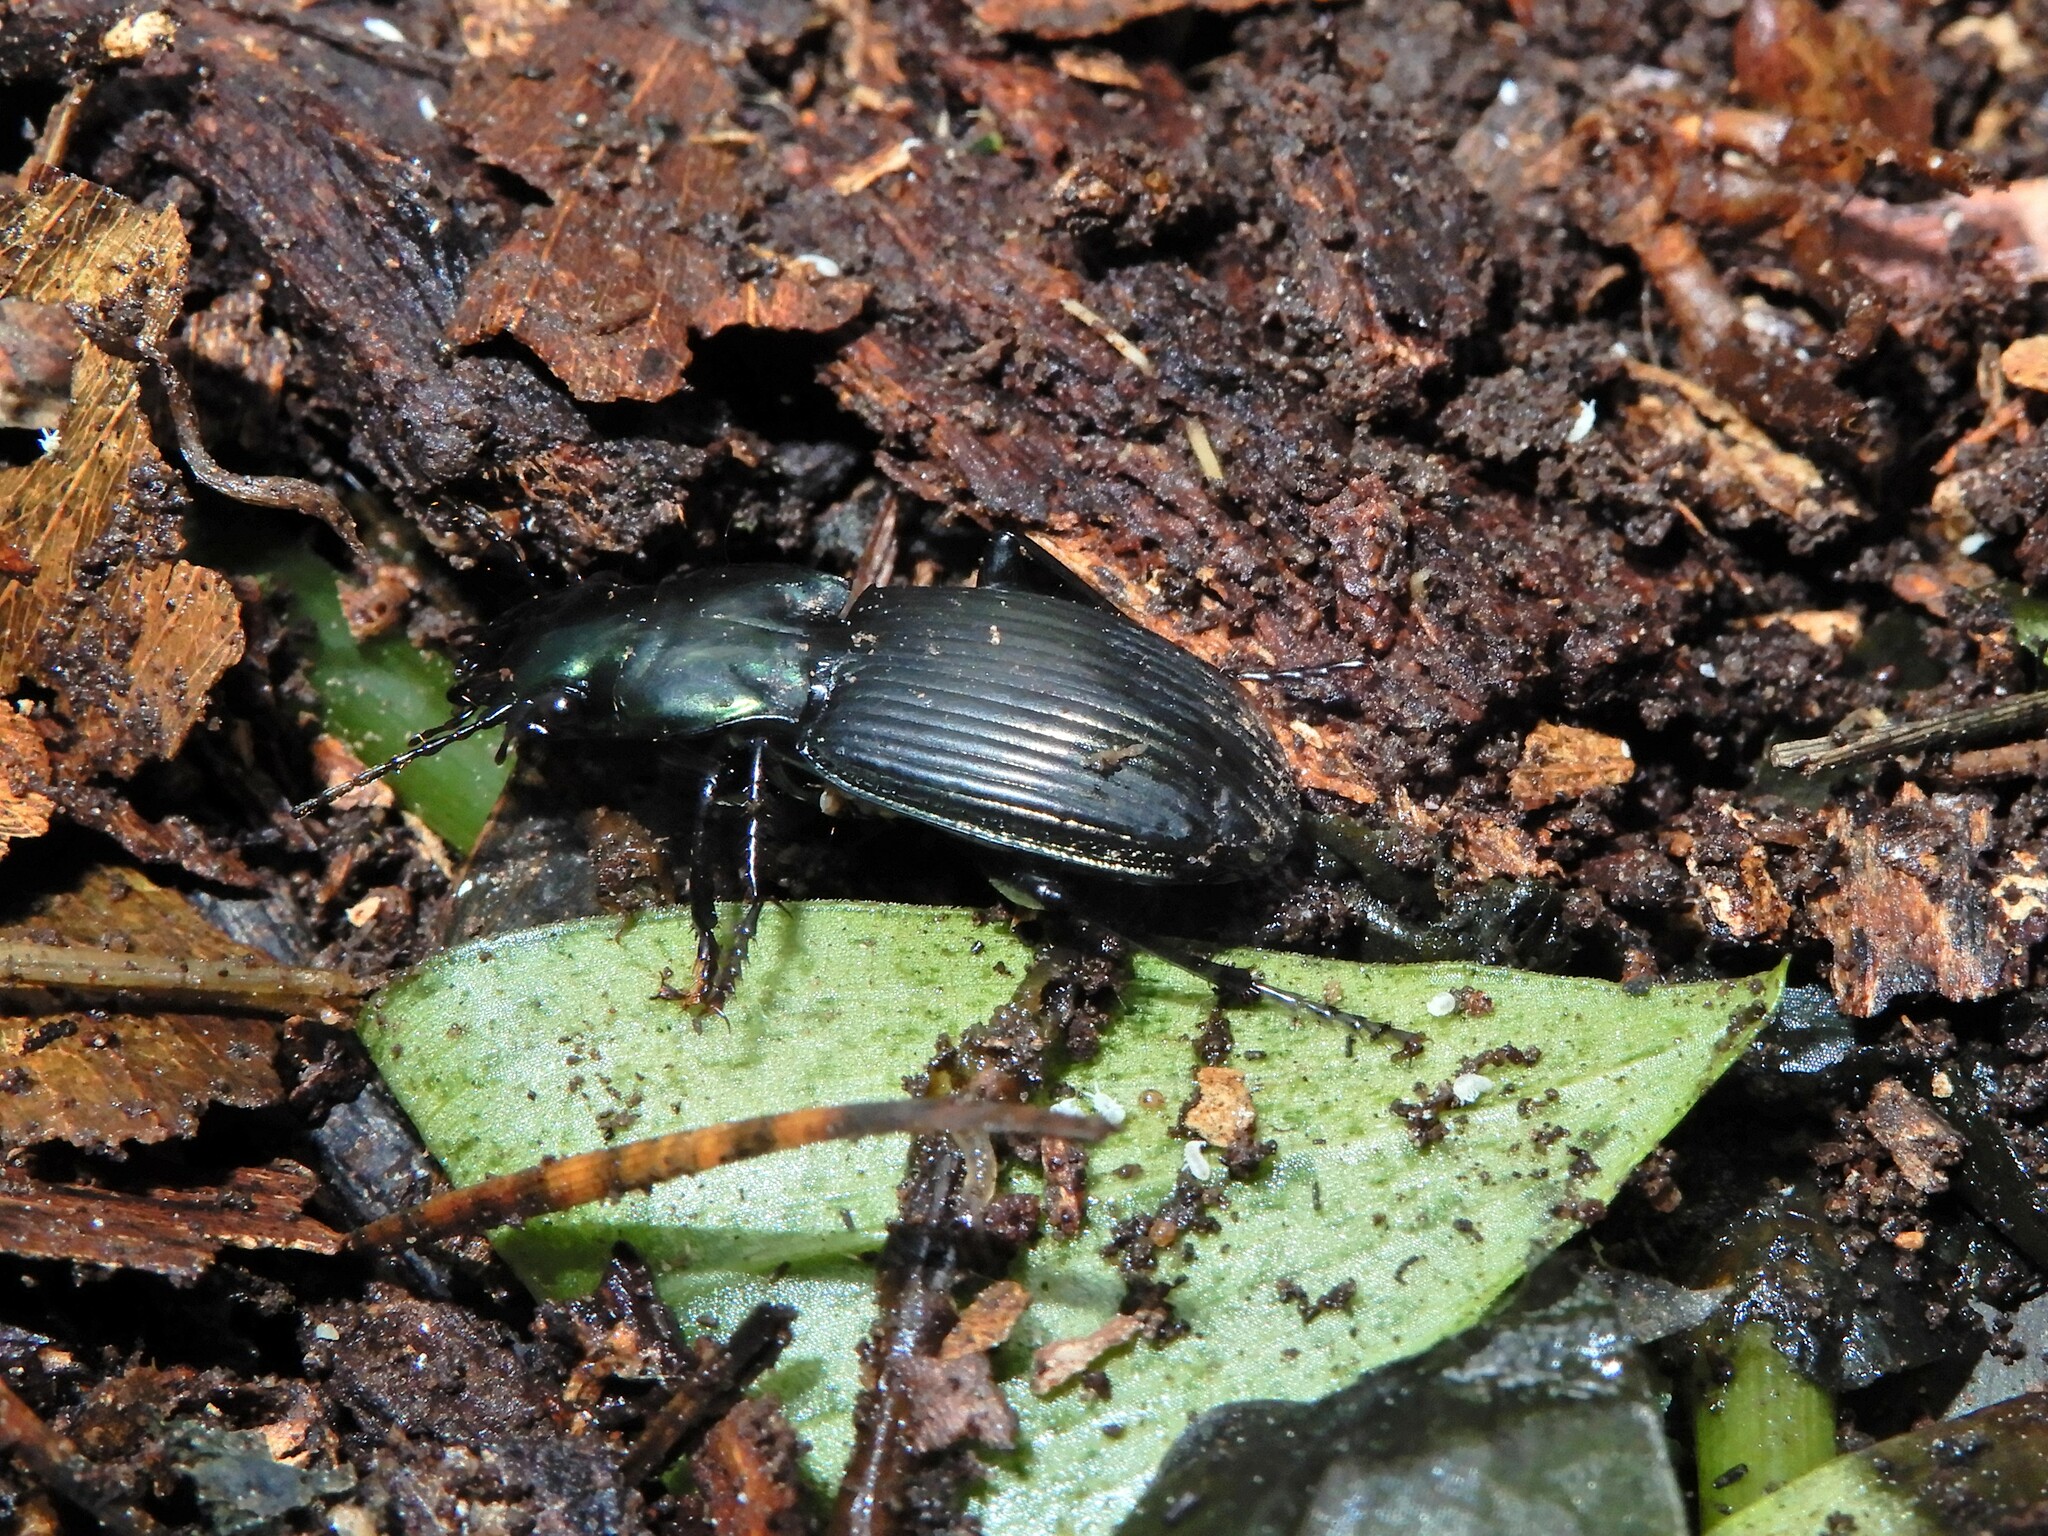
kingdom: Animalia
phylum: Arthropoda
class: Insecta
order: Coleoptera
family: Carabidae
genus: Megadromus
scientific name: Megadromus capito
